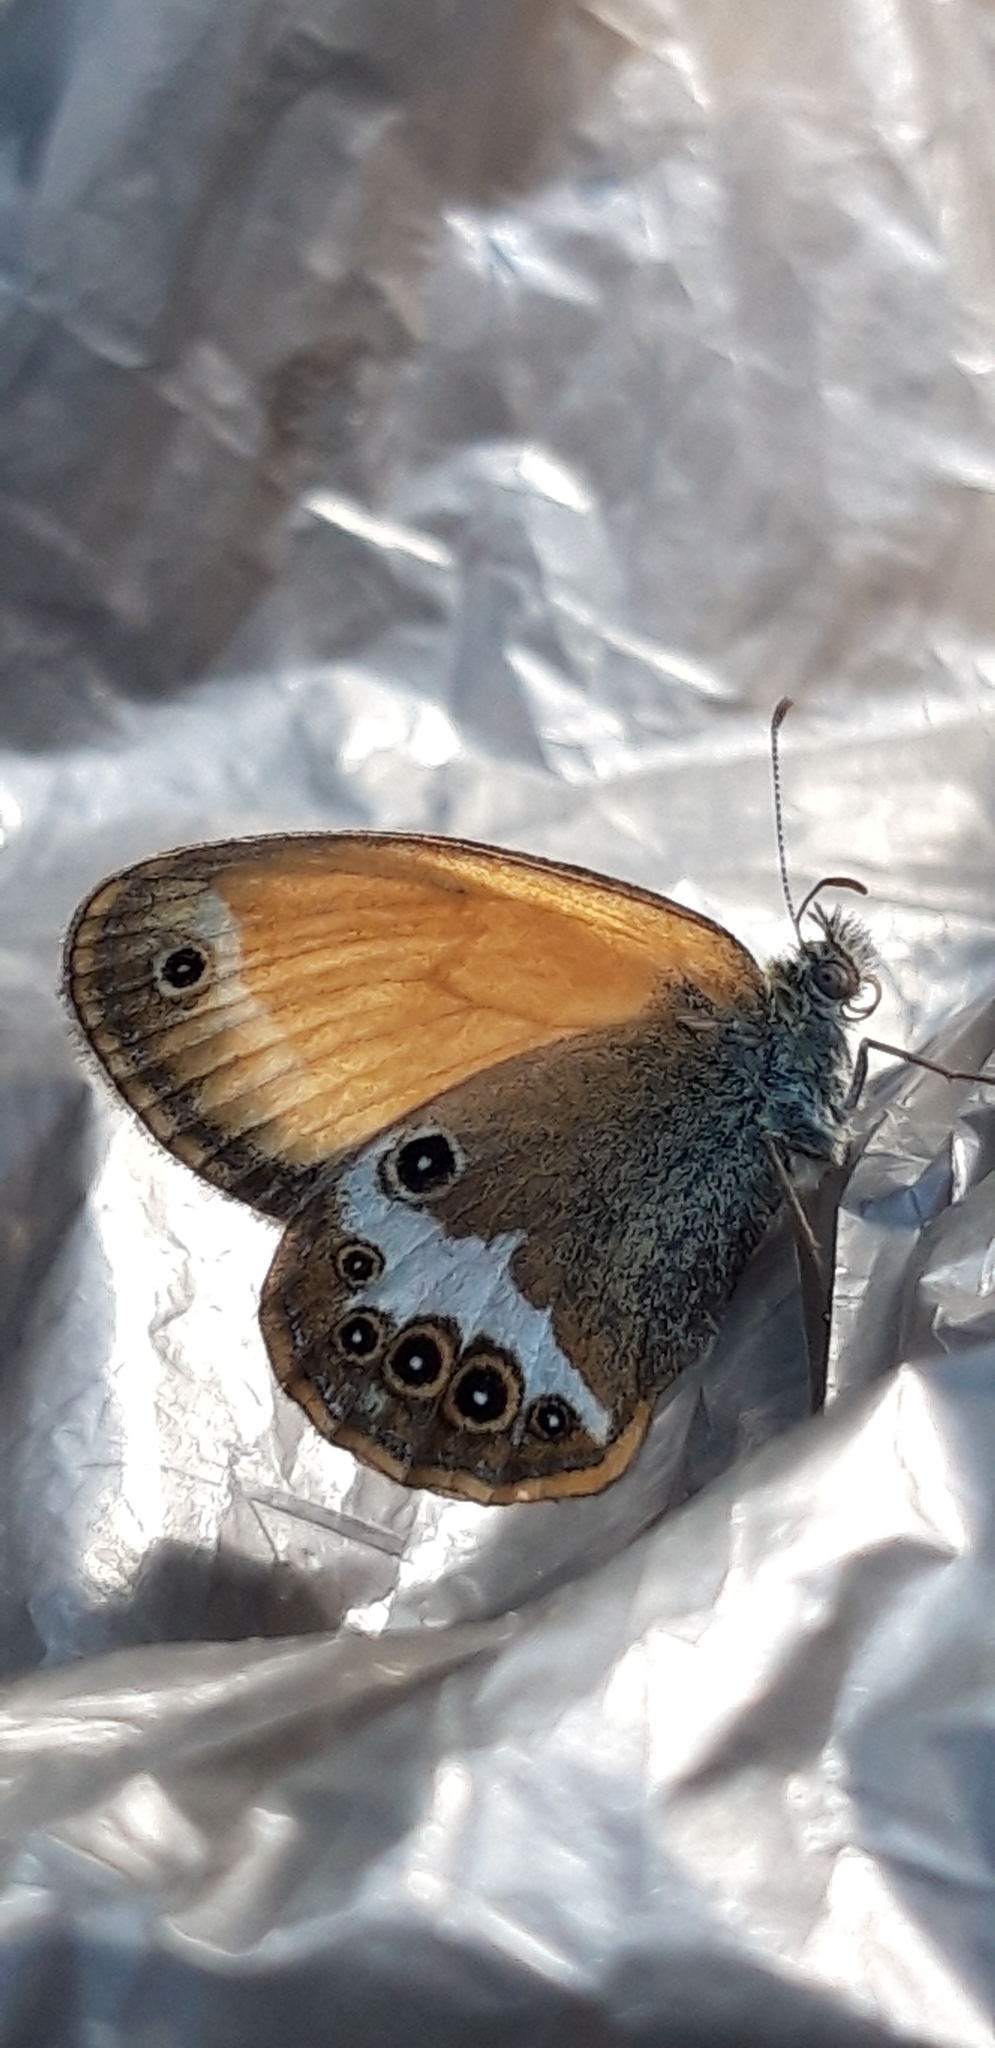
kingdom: Animalia
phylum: Arthropoda
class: Insecta
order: Lepidoptera
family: Nymphalidae
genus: Coenonympha
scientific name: Coenonympha arcania
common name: Pearly heath
